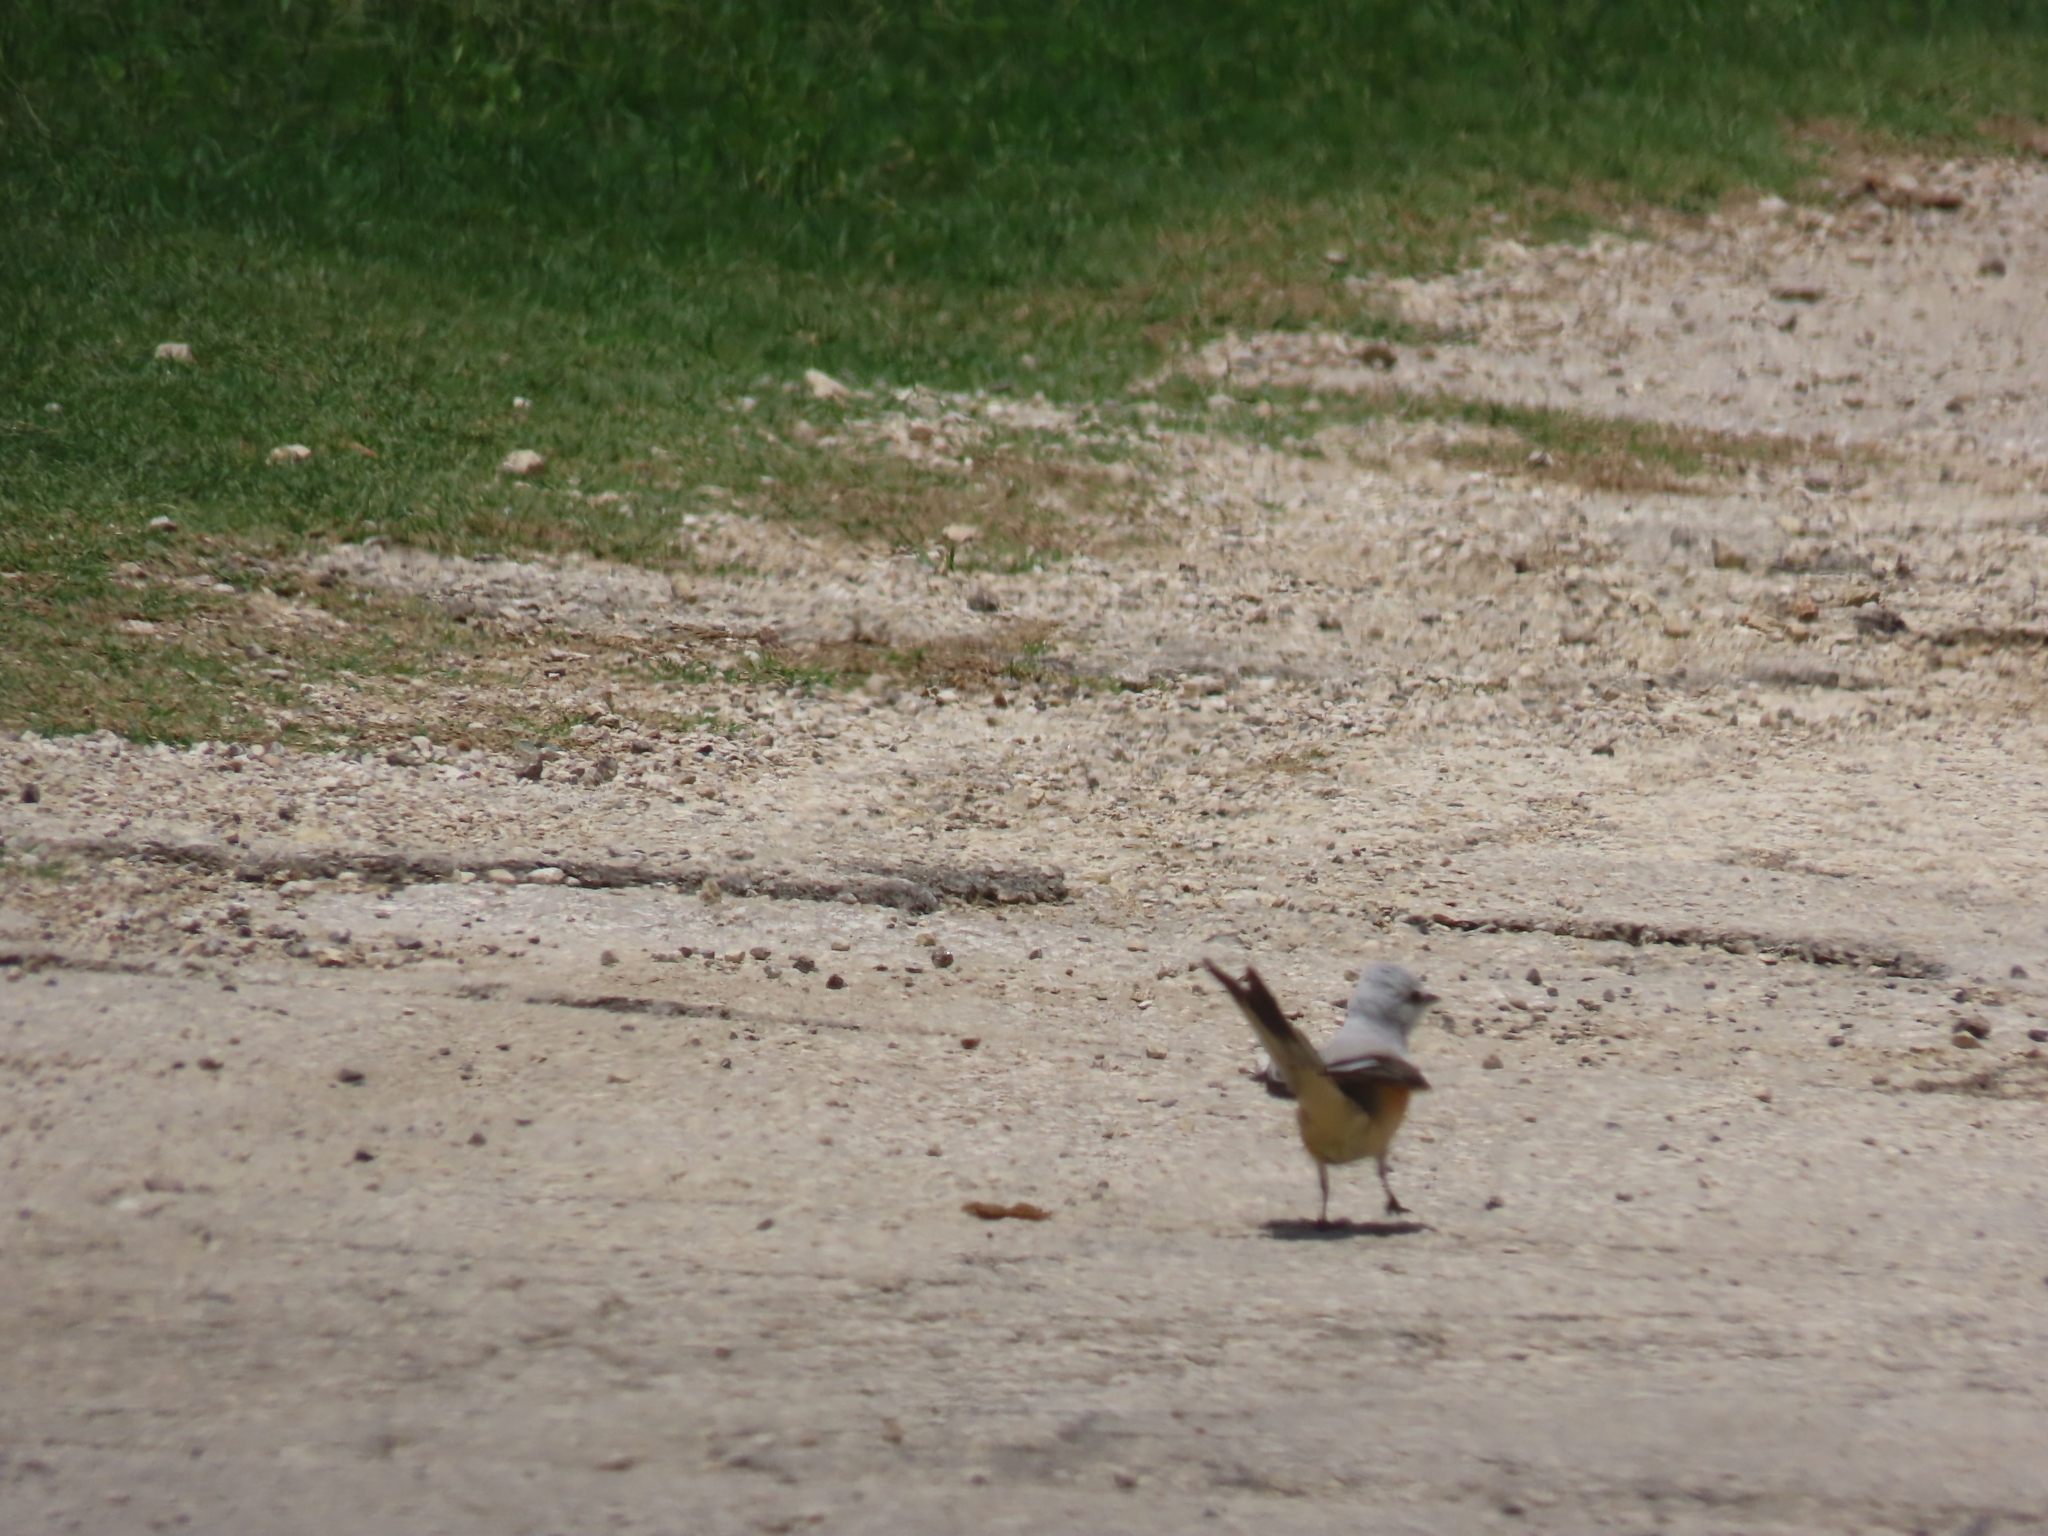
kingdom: Animalia
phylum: Chordata
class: Aves
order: Passeriformes
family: Tyrannidae
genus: Tyrannus
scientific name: Tyrannus forficatus
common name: Scissor-tailed flycatcher
